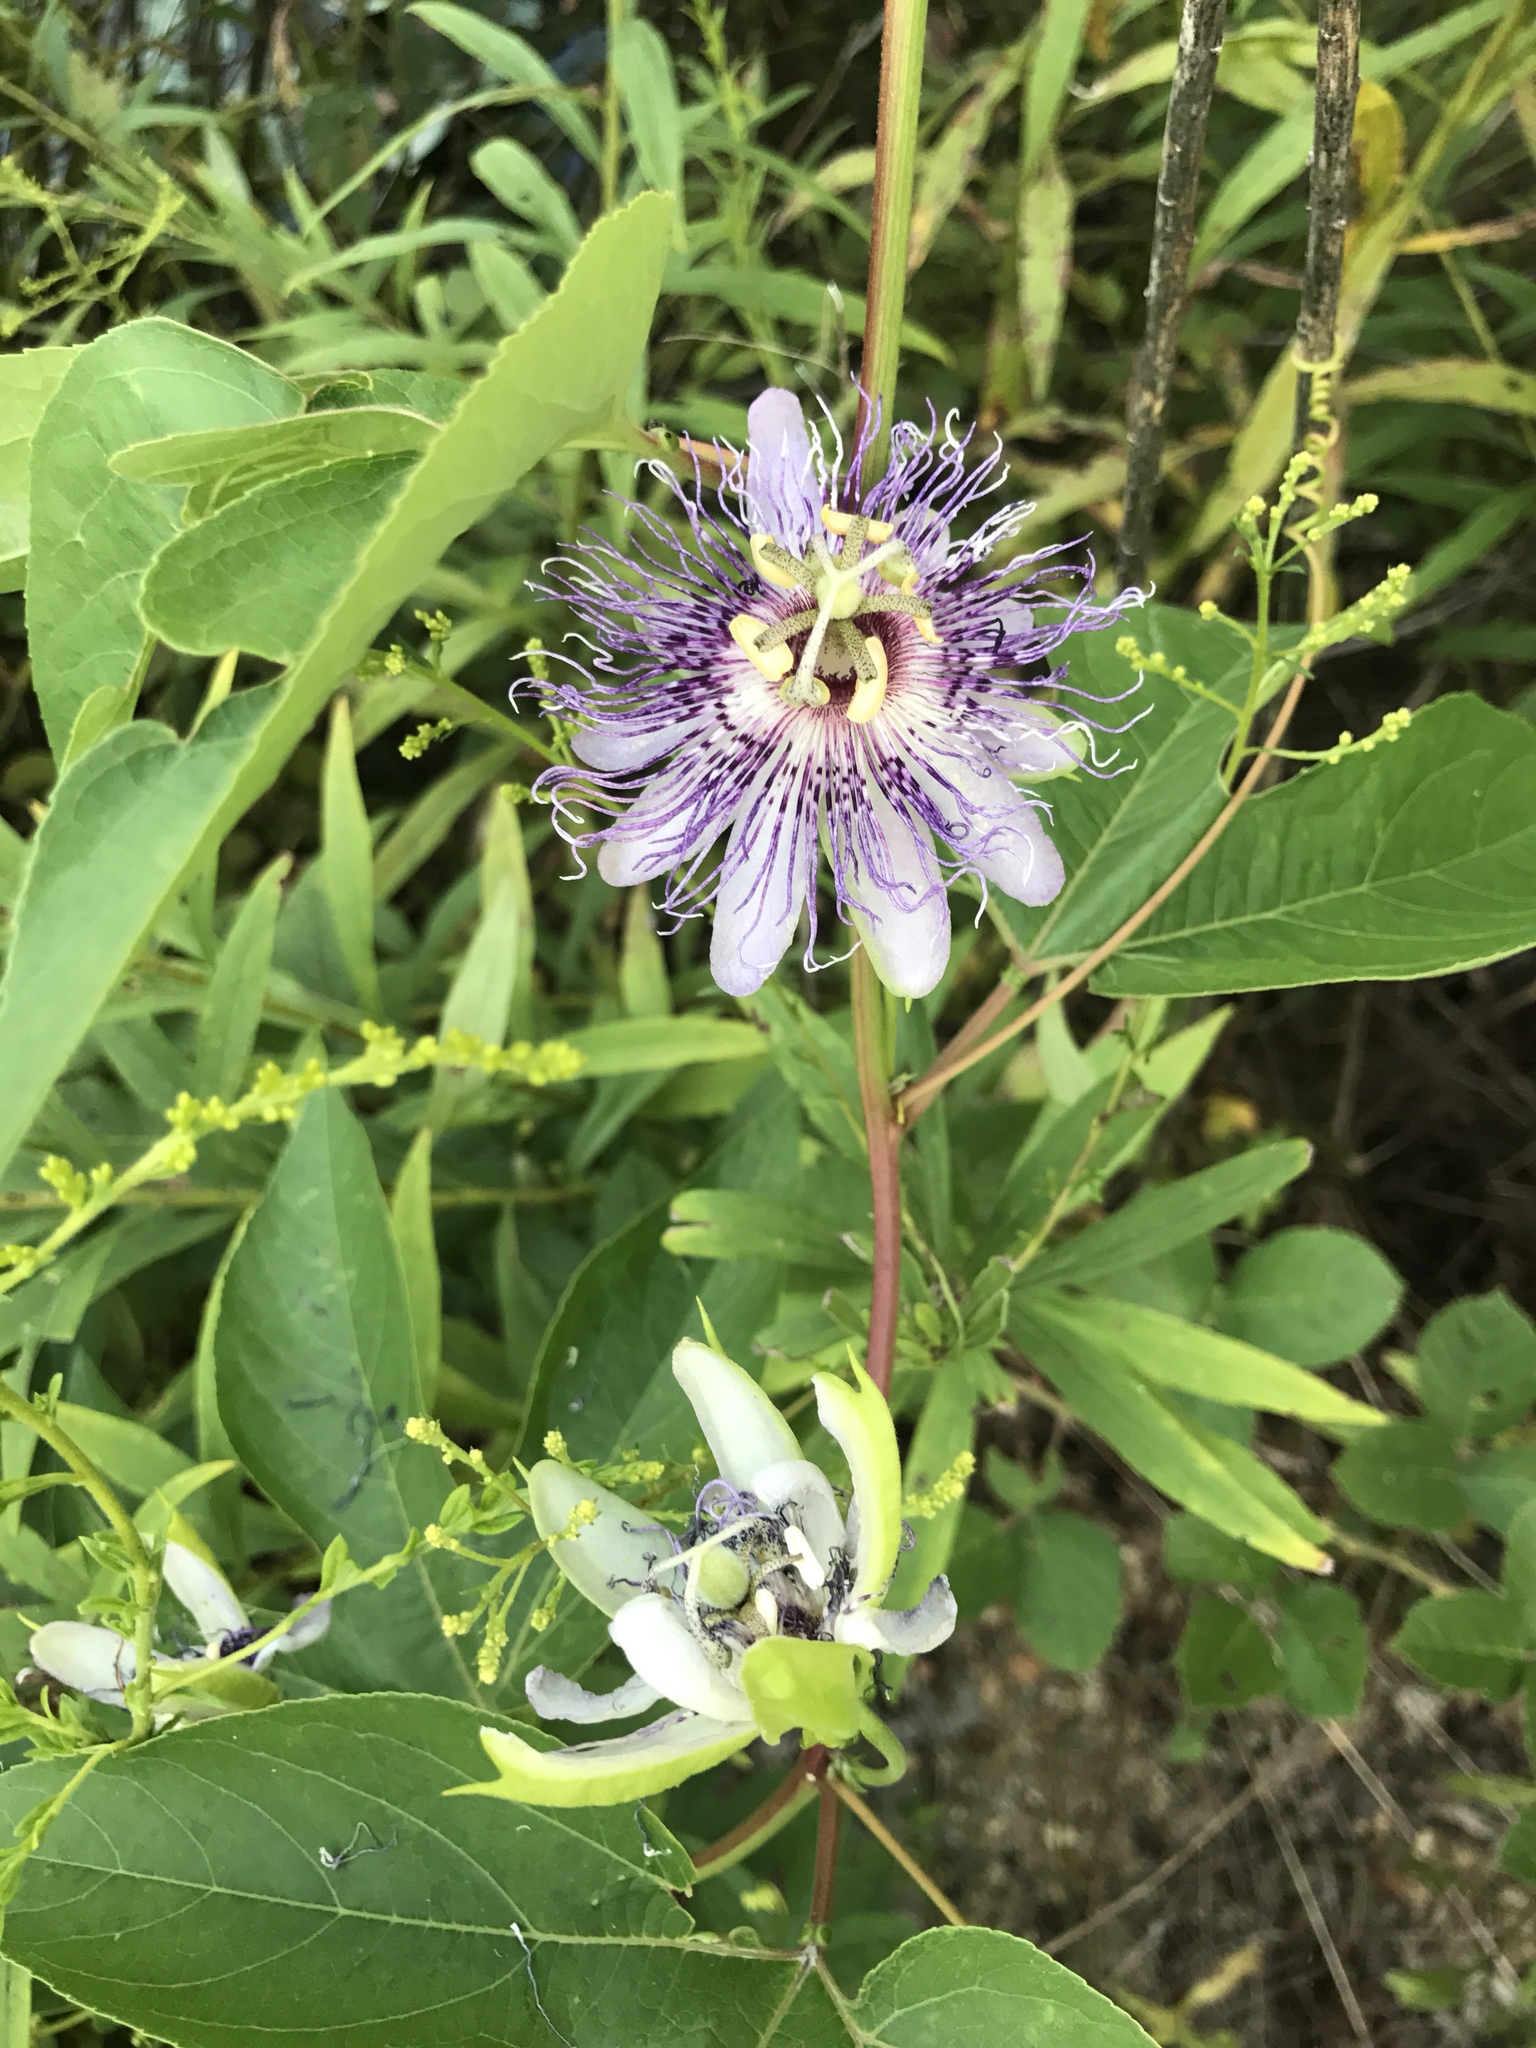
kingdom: Plantae
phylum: Tracheophyta
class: Magnoliopsida
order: Malpighiales
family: Passifloraceae
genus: Passiflora
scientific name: Passiflora incarnata
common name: Apricot-vine
